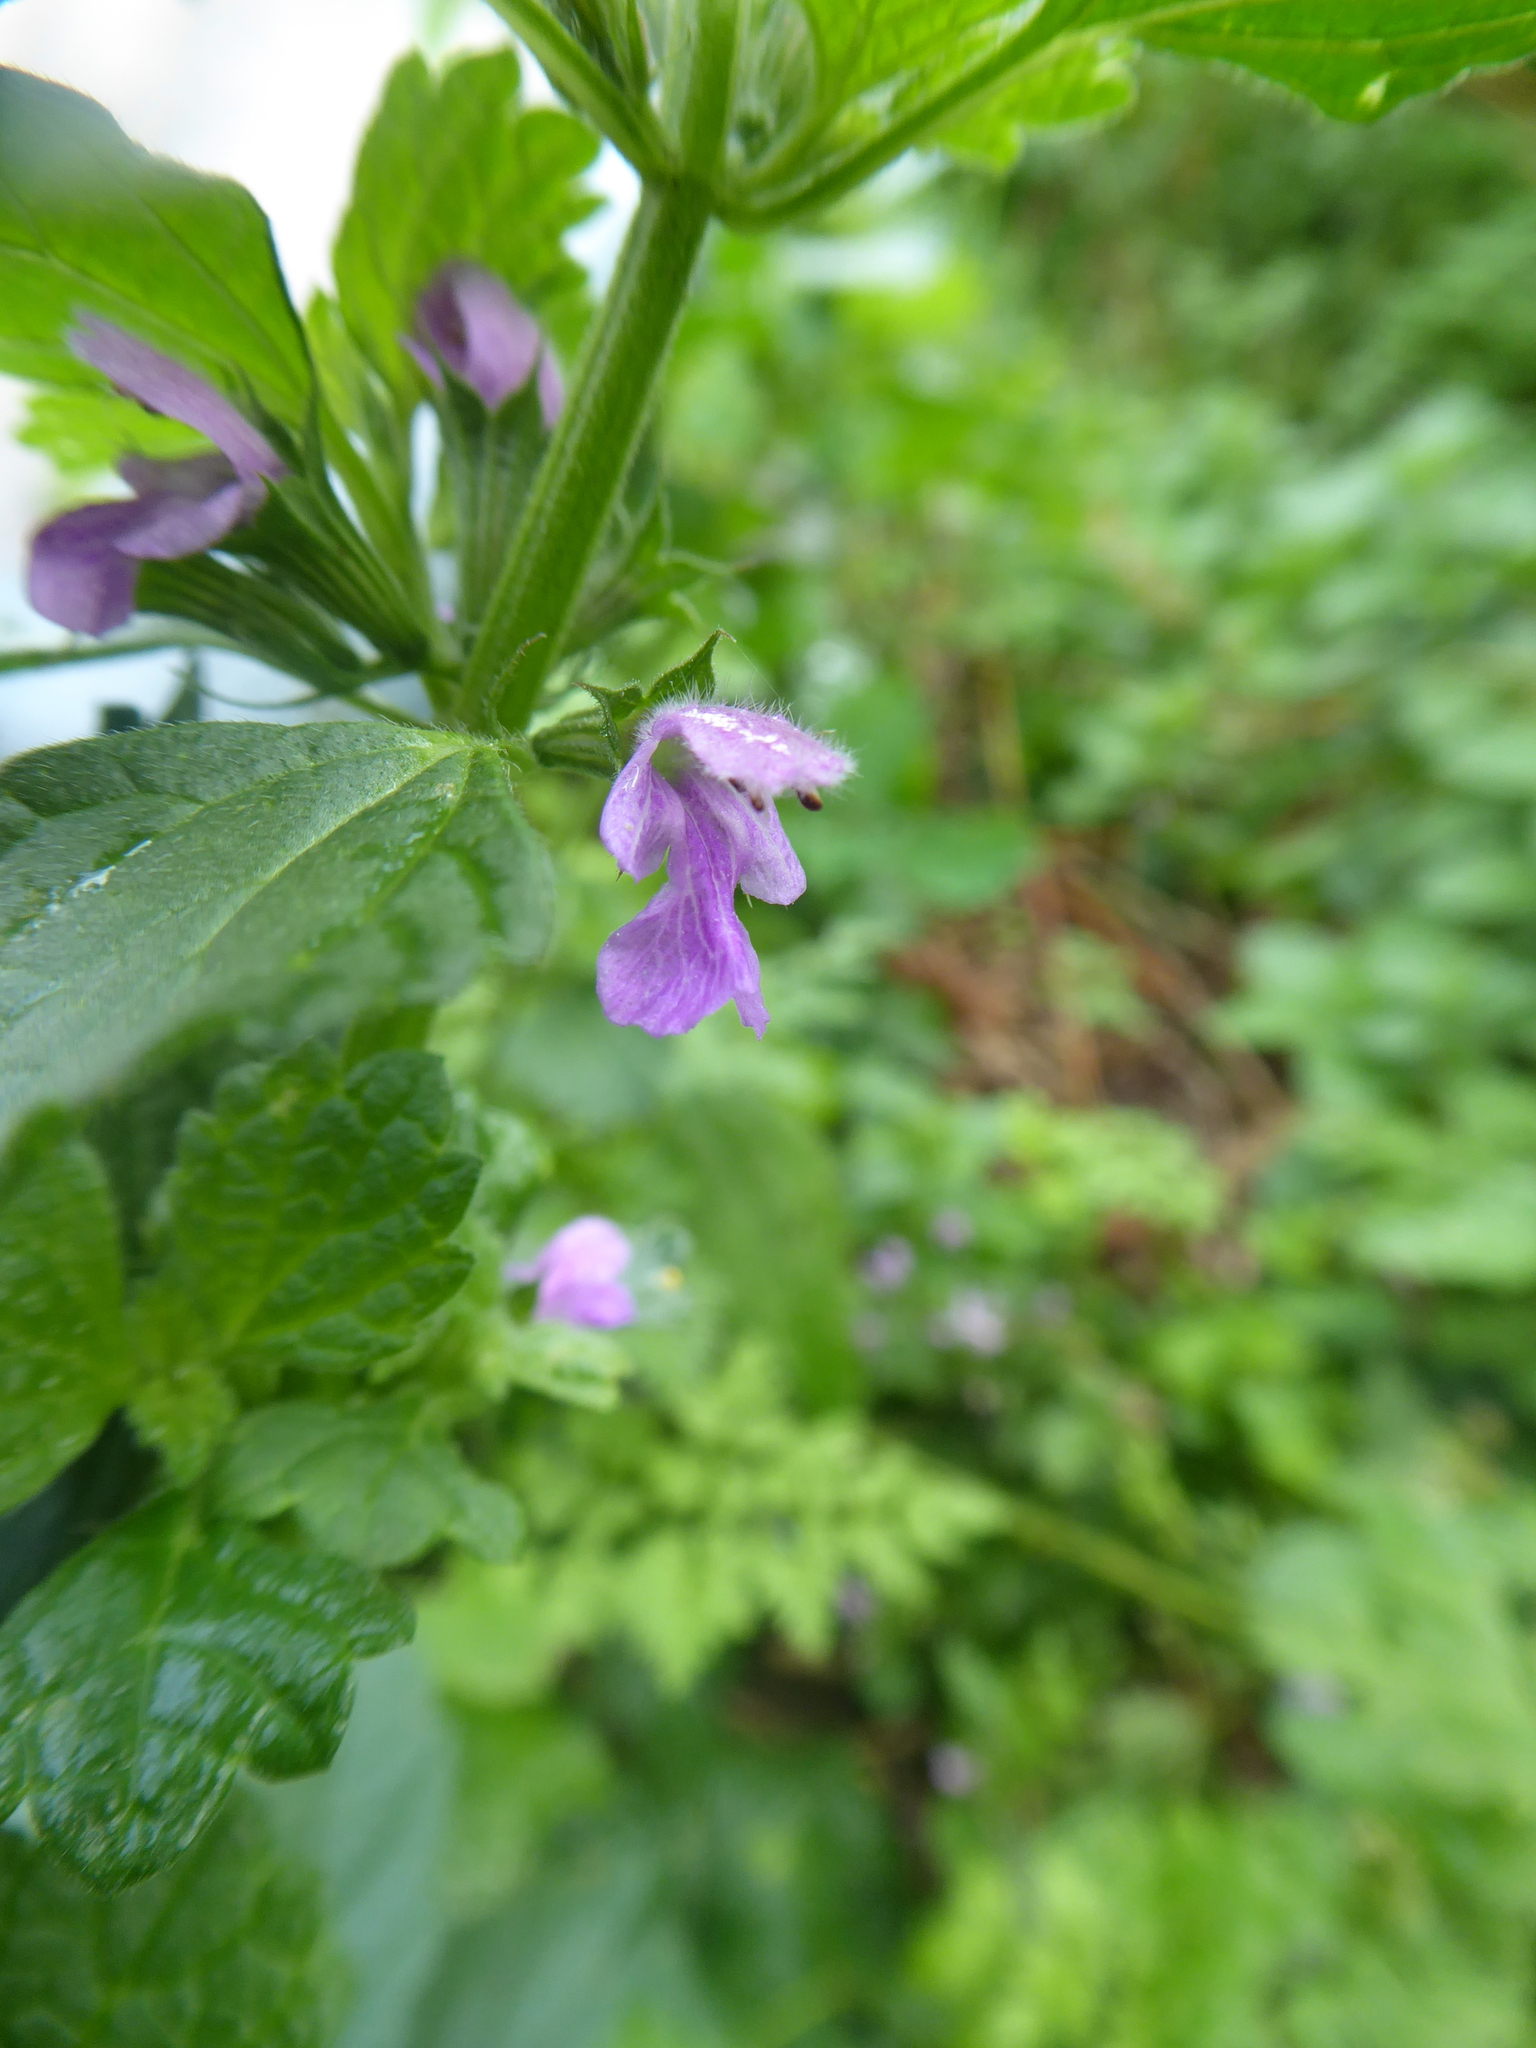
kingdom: Plantae
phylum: Tracheophyta
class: Magnoliopsida
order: Lamiales
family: Lamiaceae
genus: Ballota
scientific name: Ballota nigra
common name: Black horehound
